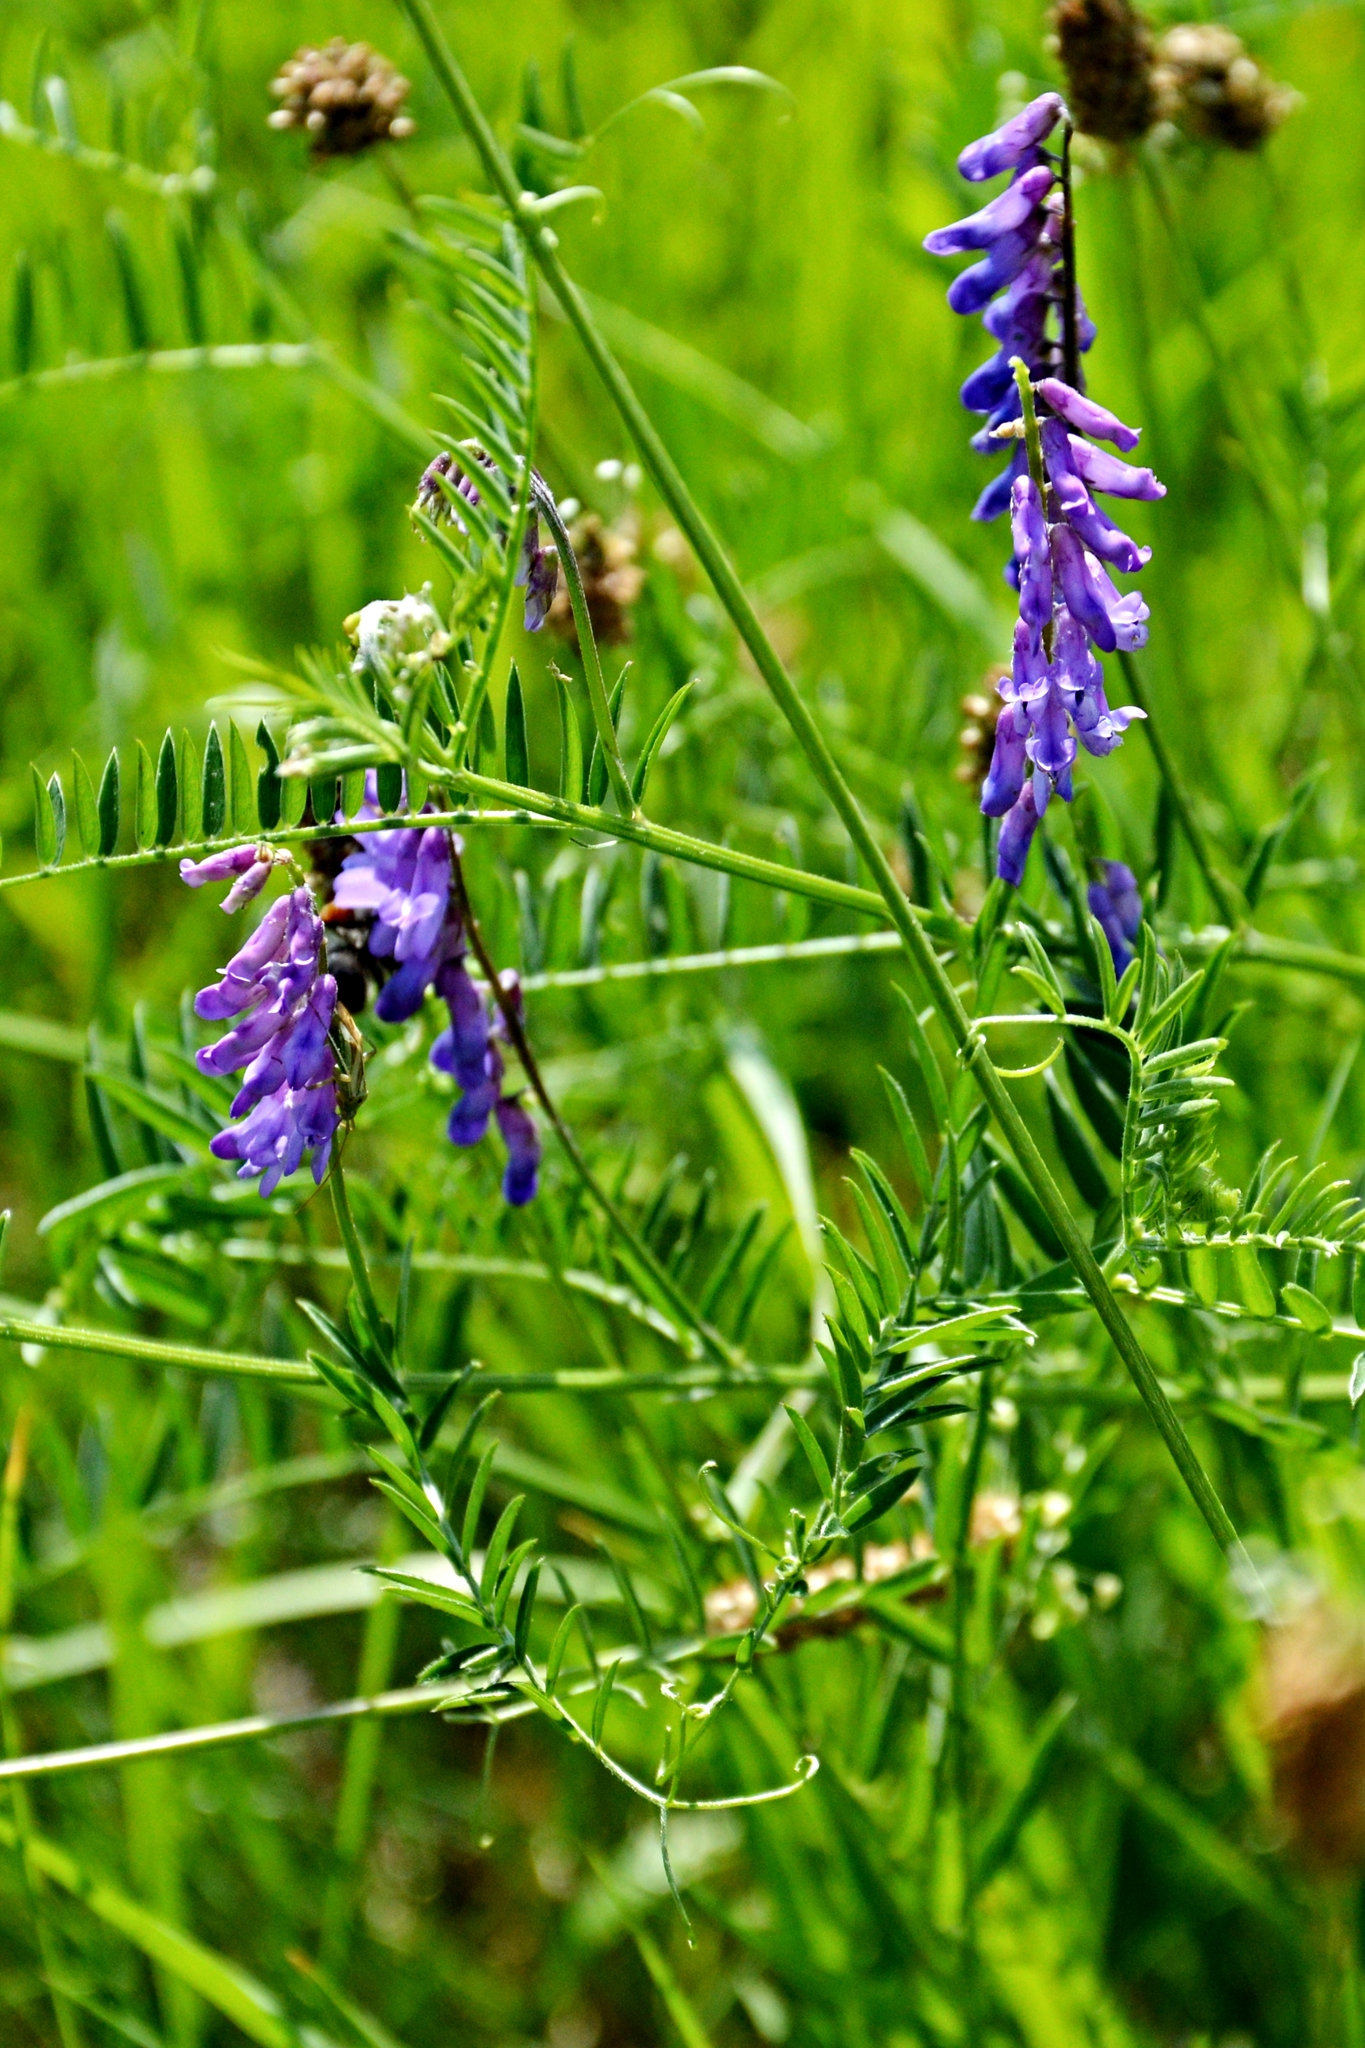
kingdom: Plantae
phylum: Tracheophyta
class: Magnoliopsida
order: Fabales
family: Fabaceae
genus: Vicia
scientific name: Vicia cracca
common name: Bird vetch
